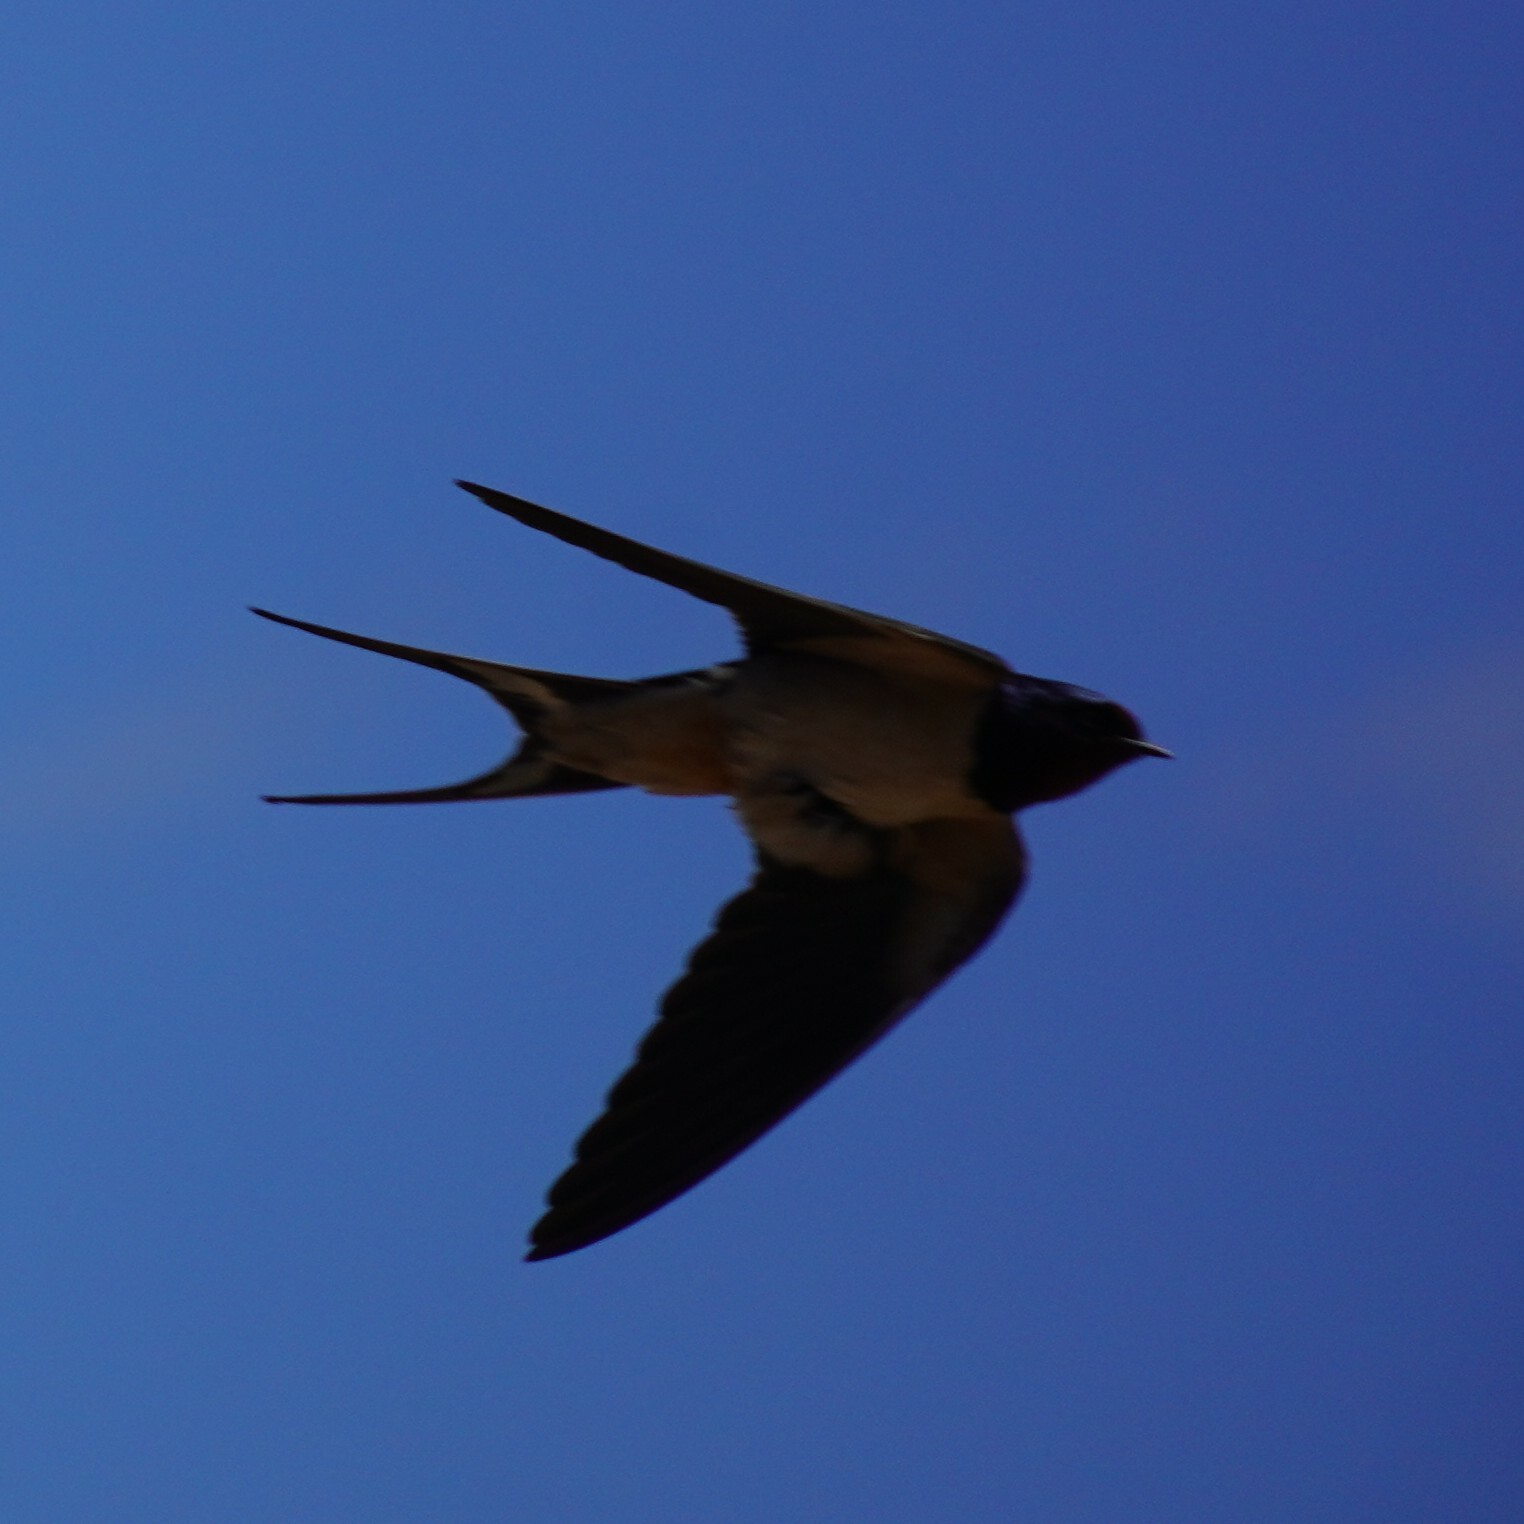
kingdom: Animalia
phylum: Chordata
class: Aves
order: Passeriformes
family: Hirundinidae
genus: Hirundo
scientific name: Hirundo rustica
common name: Barn swallow
